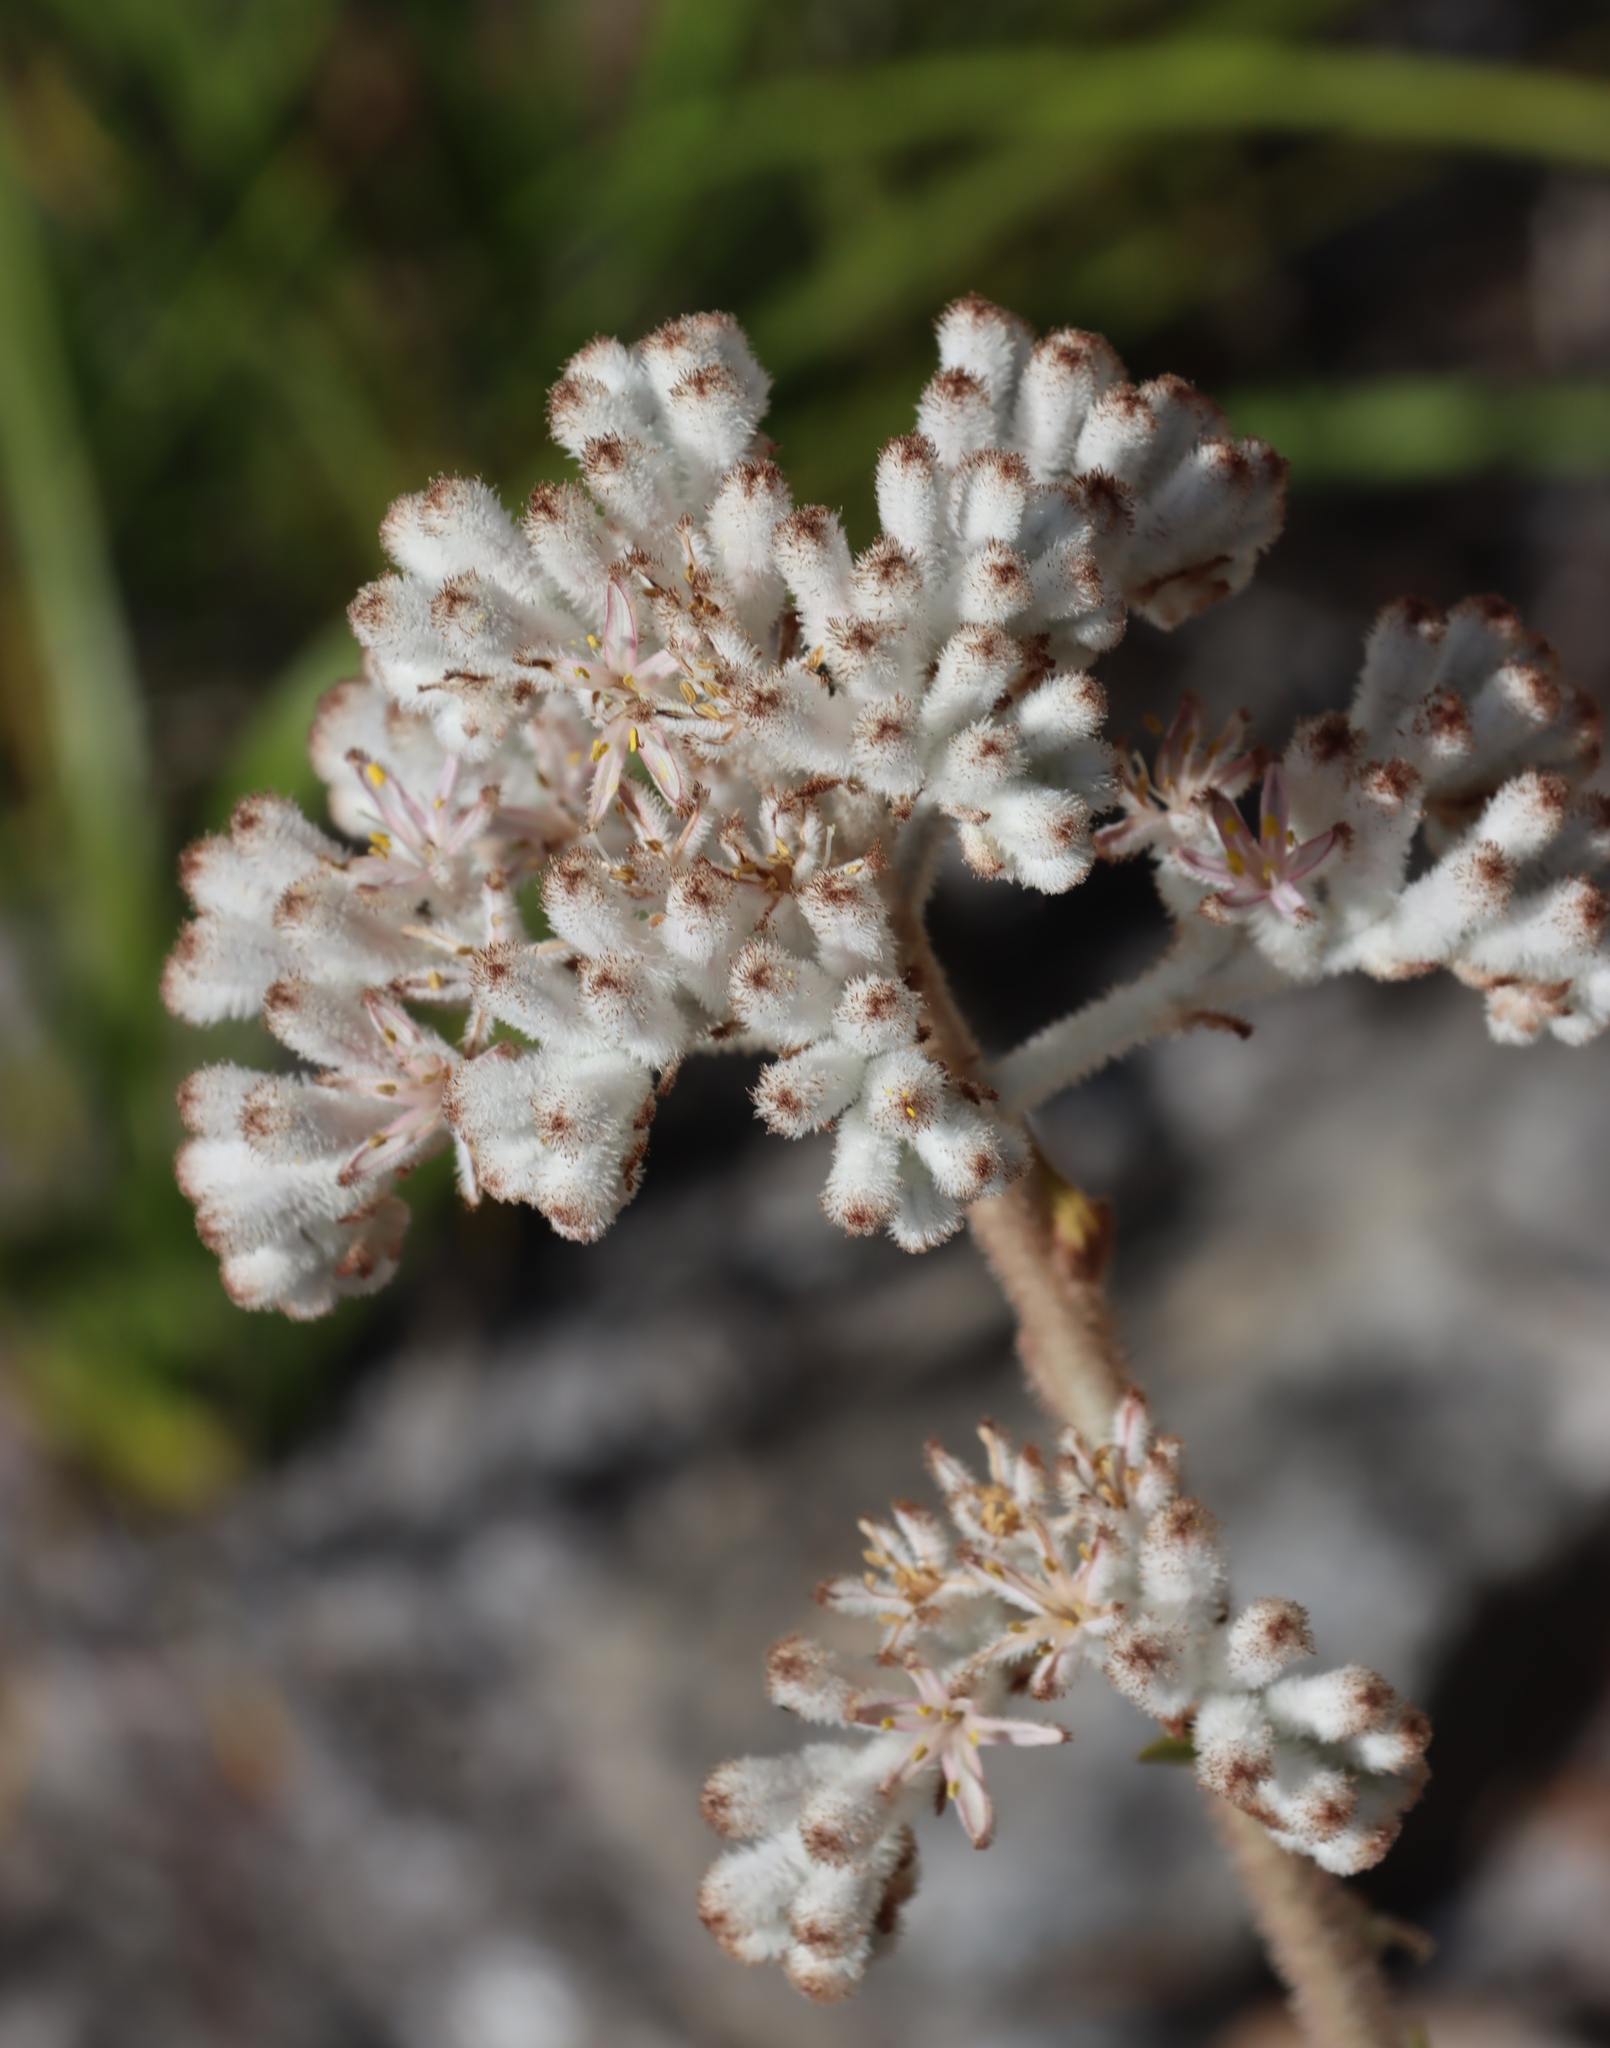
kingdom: Plantae
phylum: Tracheophyta
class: Liliopsida
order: Asparagales
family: Lanariaceae
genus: Lanaria
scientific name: Lanaria lanata
